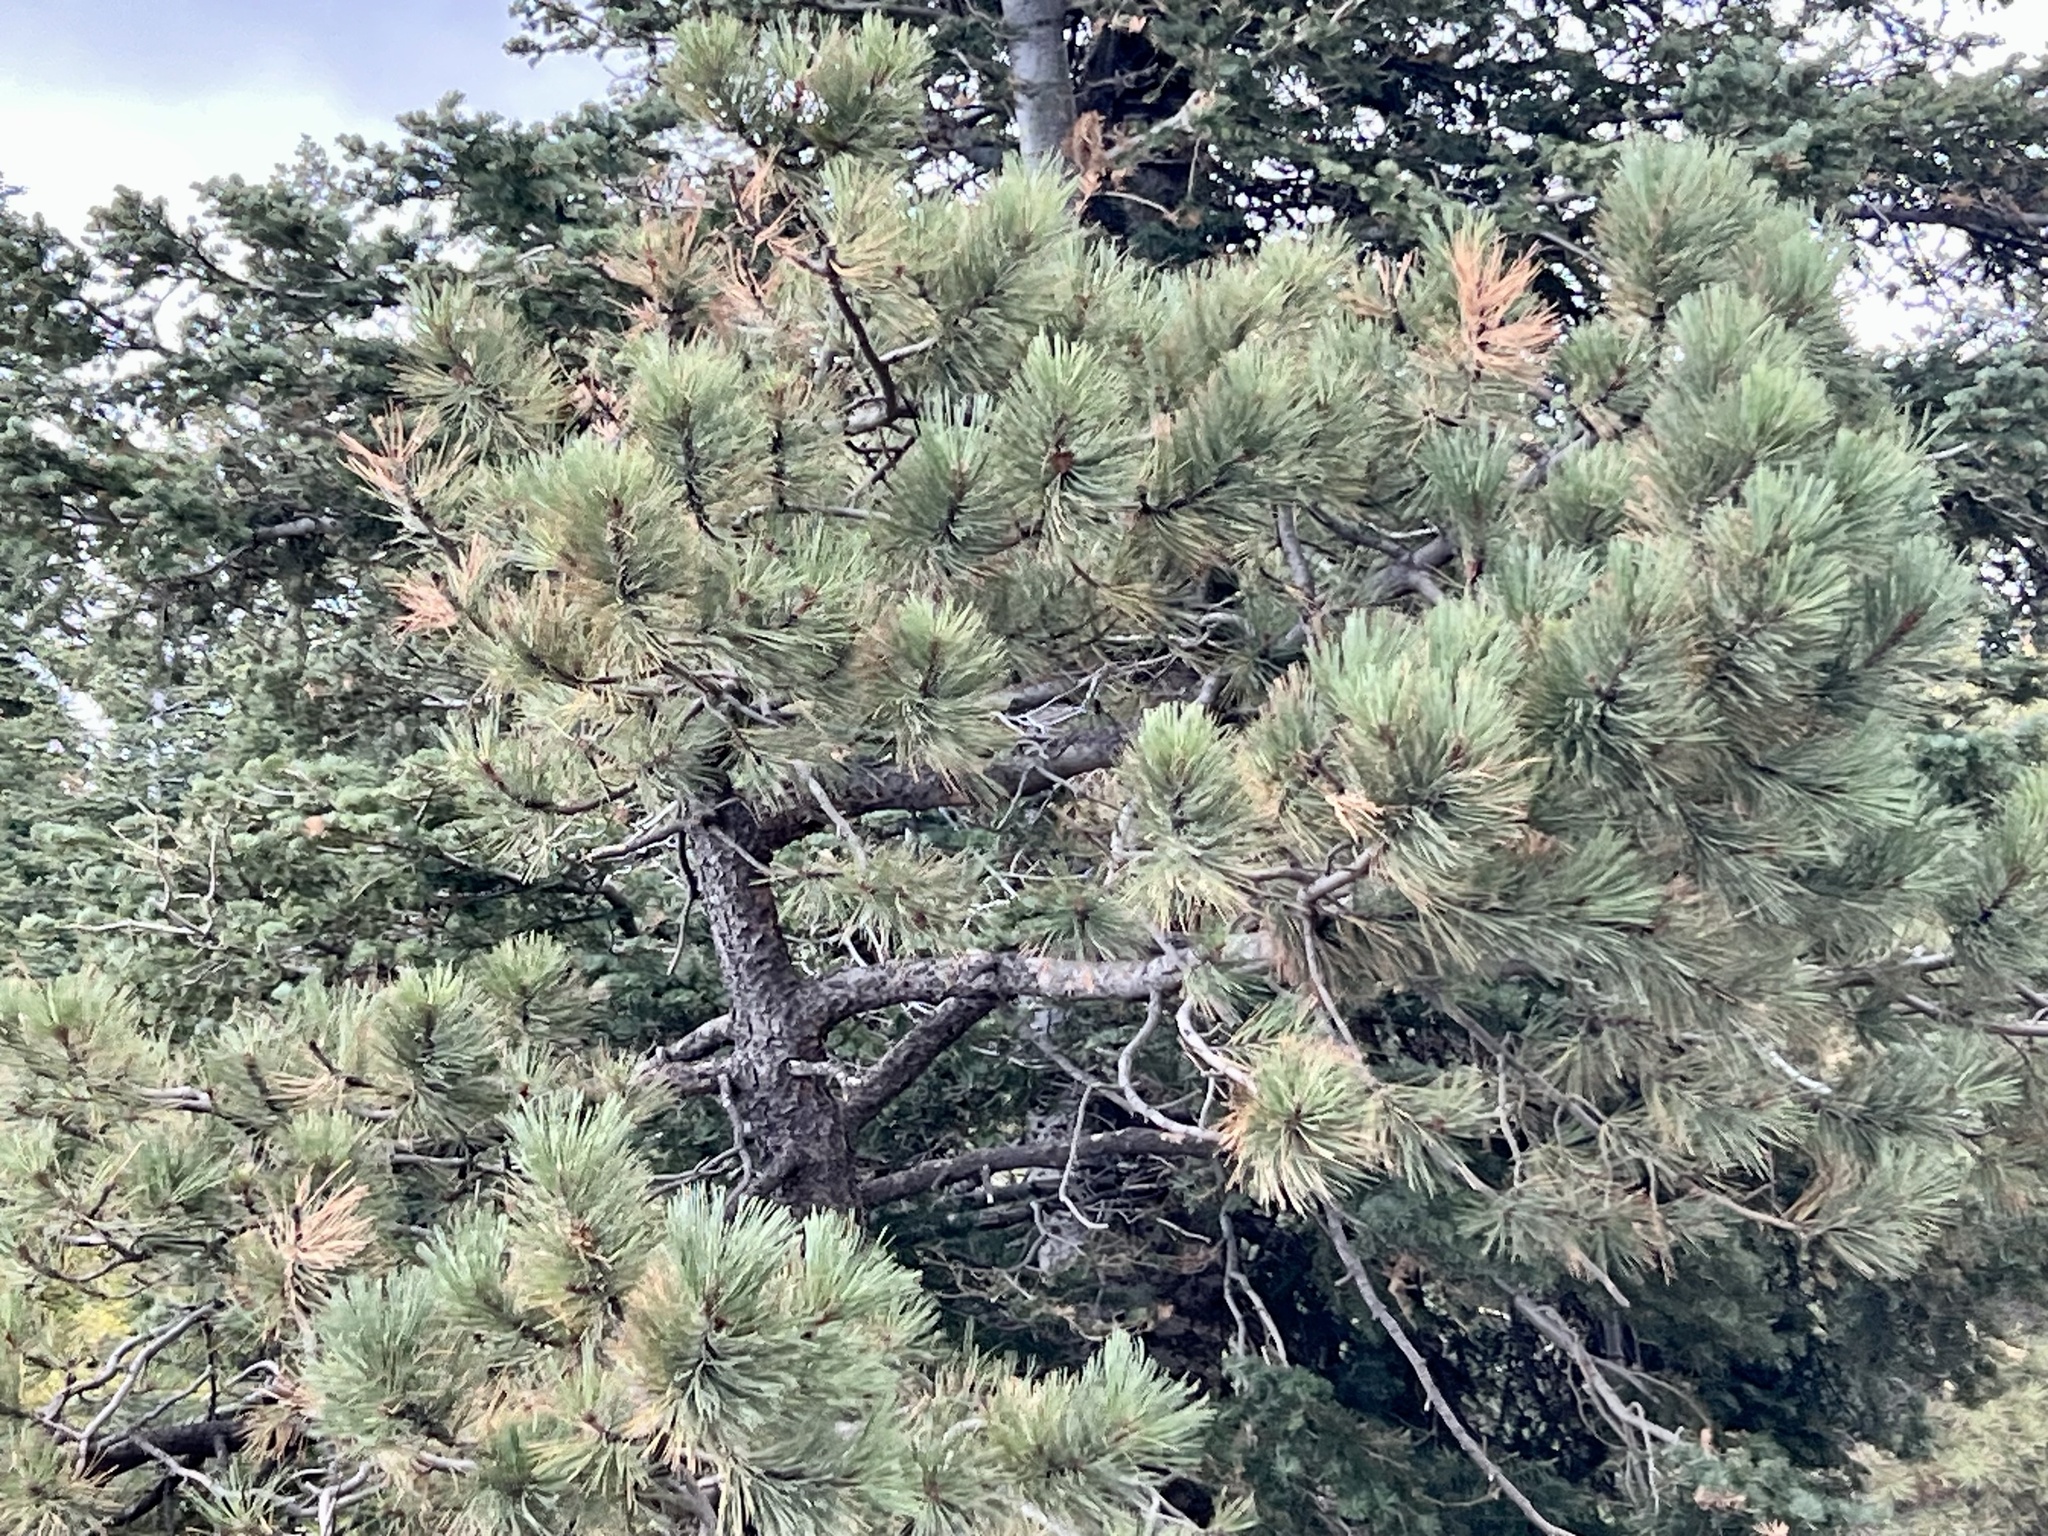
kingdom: Plantae
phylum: Tracheophyta
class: Pinopsida
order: Pinales
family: Pinaceae
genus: Pinus
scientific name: Pinus ponderosa
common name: Western yellow-pine
